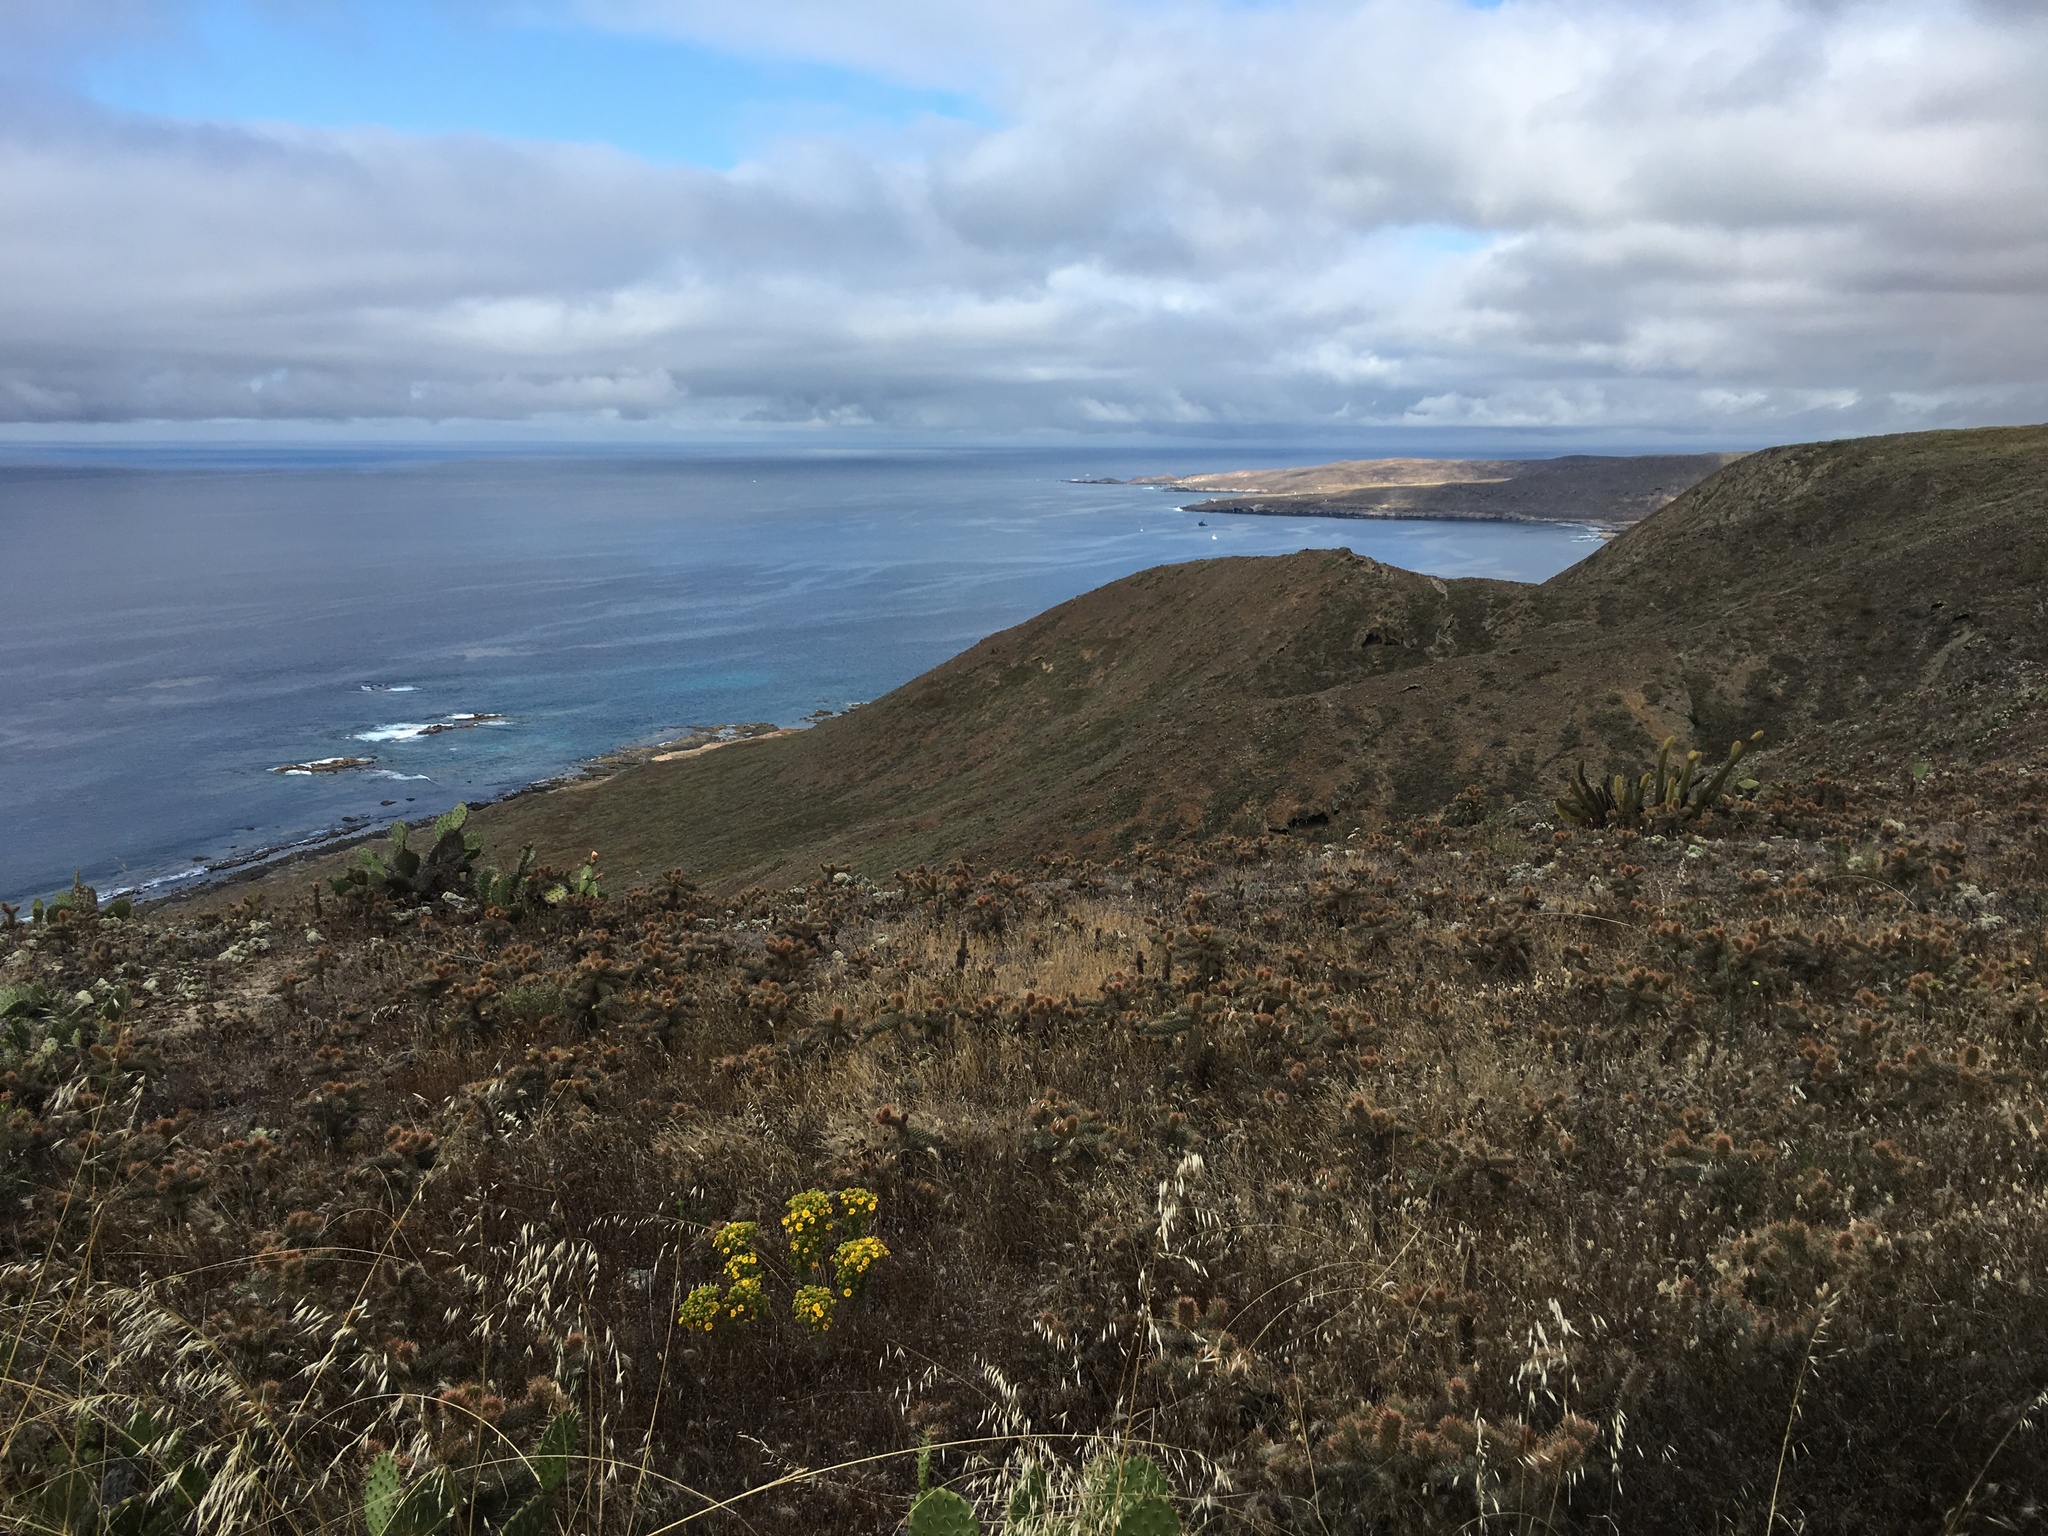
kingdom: Plantae
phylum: Tracheophyta
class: Magnoliopsida
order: Caryophyllales
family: Cactaceae
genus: Cylindropuntia
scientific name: Cylindropuntia prolifera
